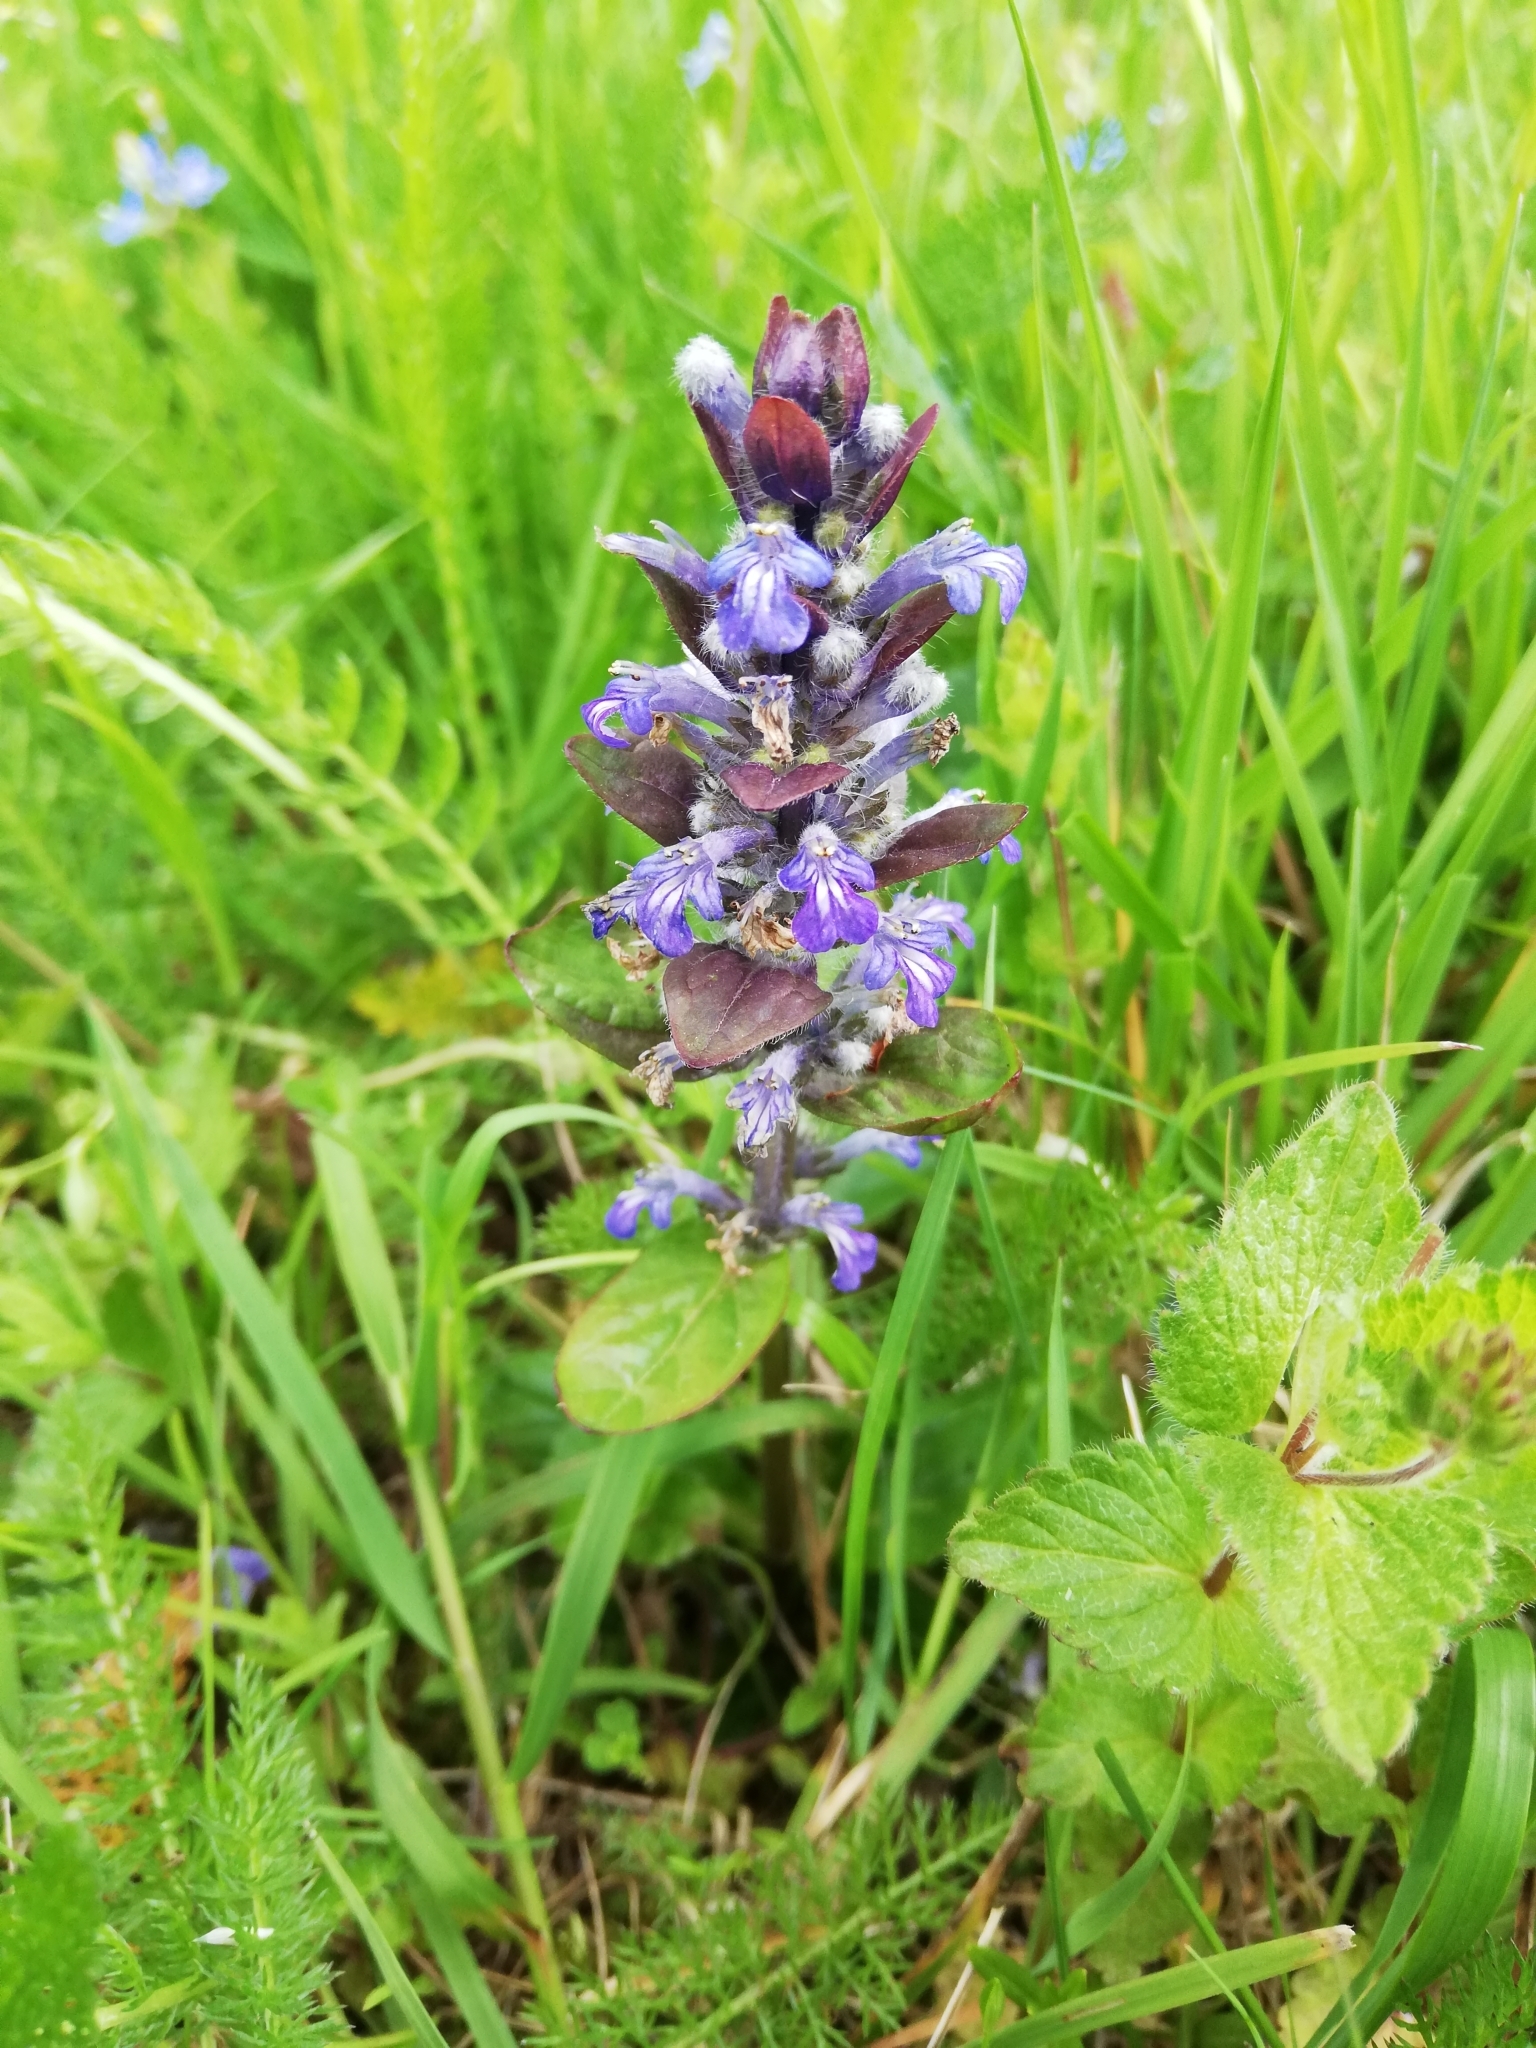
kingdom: Plantae
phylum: Tracheophyta
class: Magnoliopsida
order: Lamiales
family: Lamiaceae
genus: Ajuga
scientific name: Ajuga reptans
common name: Bugle
